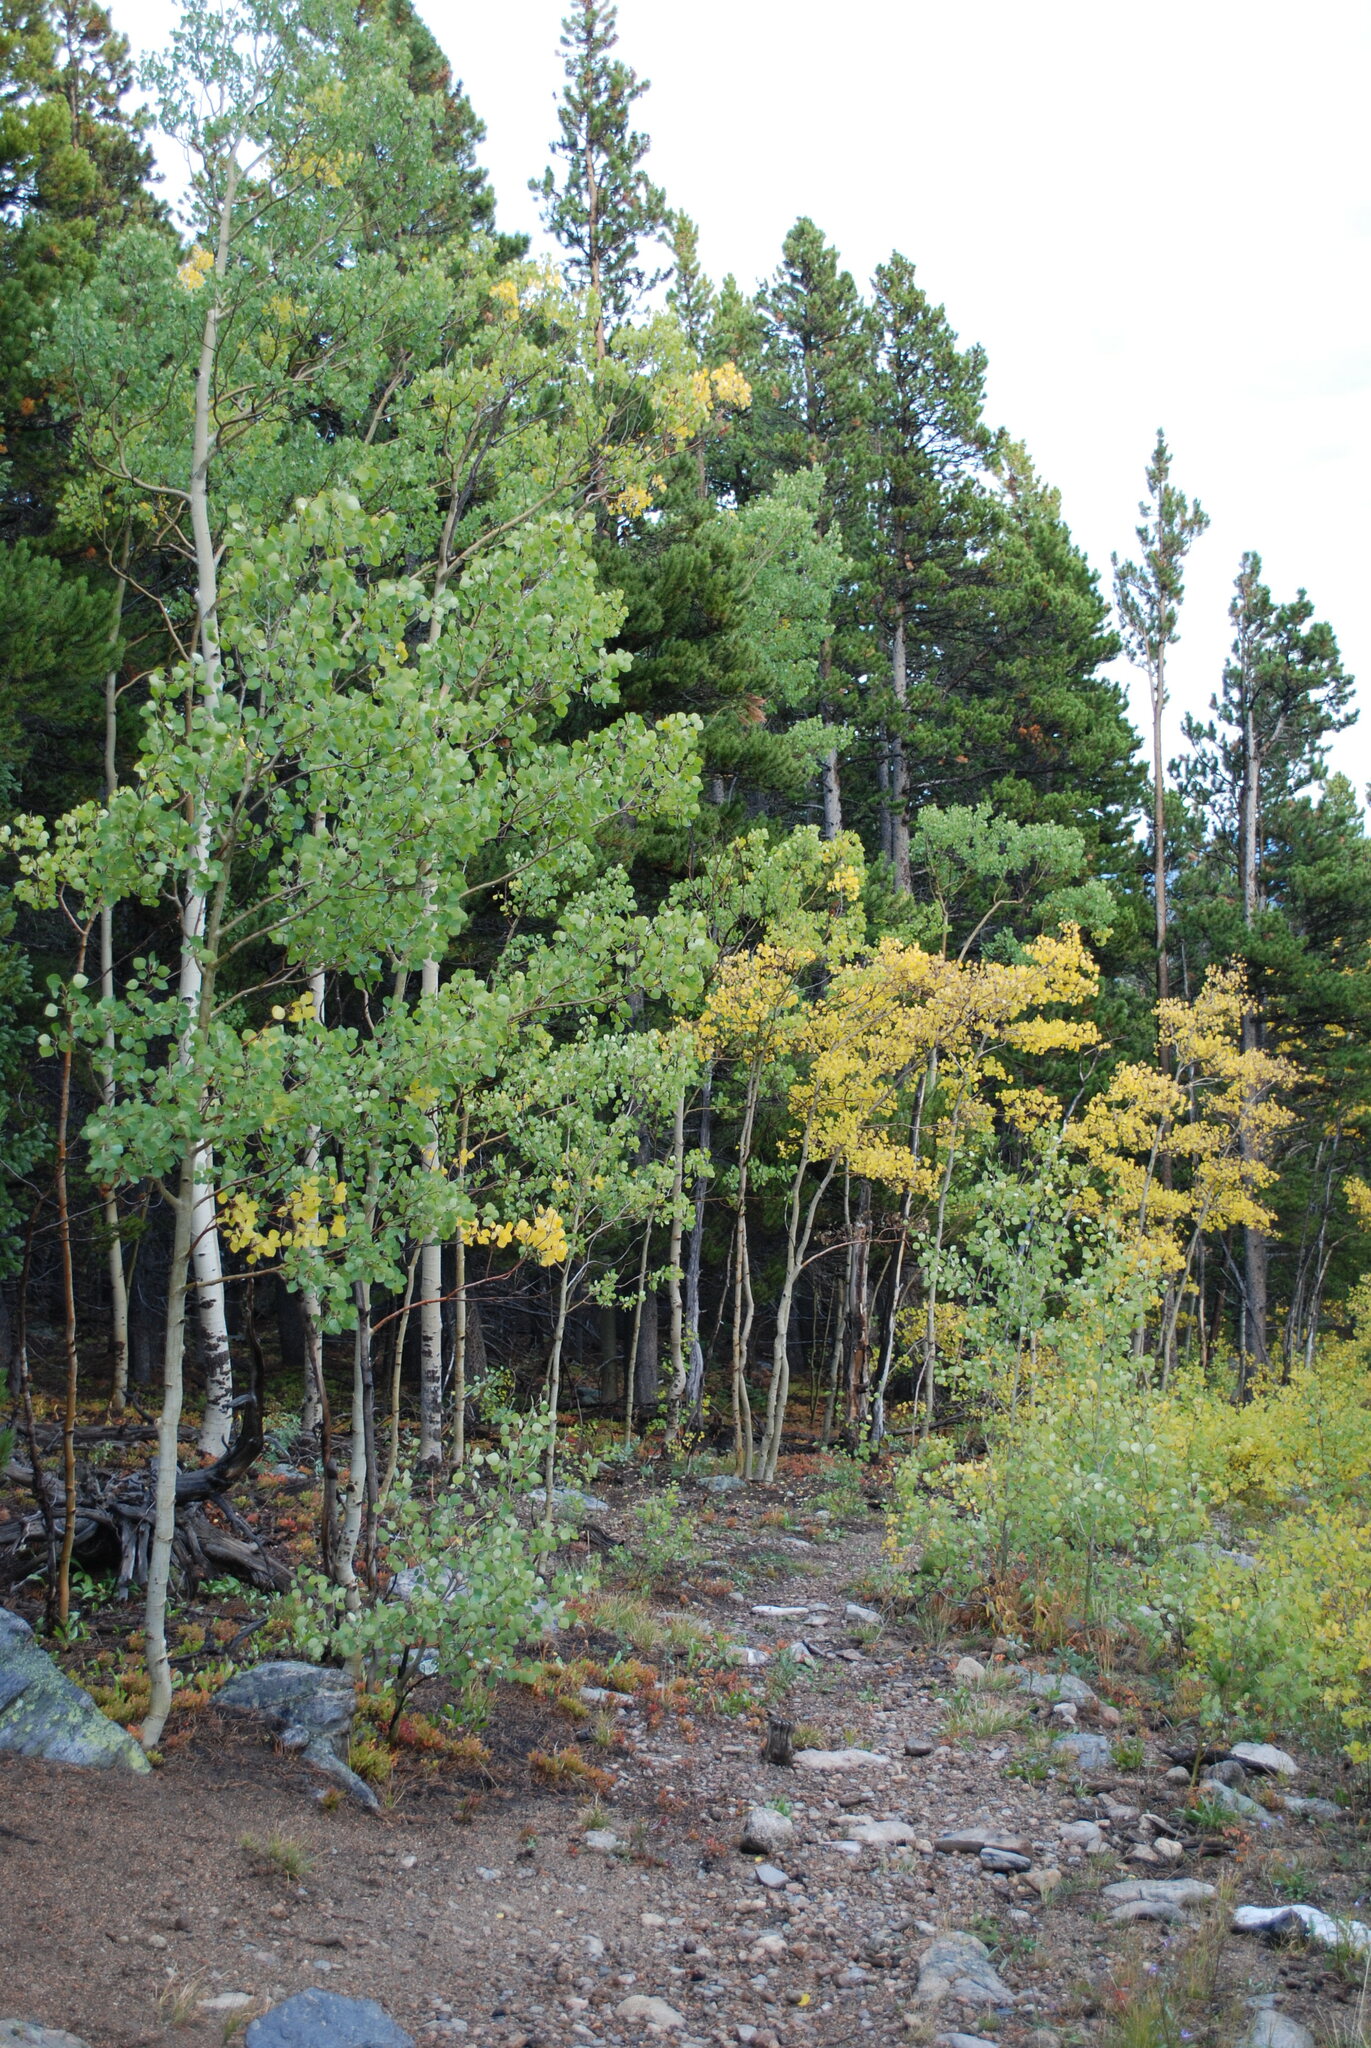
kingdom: Plantae
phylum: Tracheophyta
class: Magnoliopsida
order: Malpighiales
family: Salicaceae
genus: Populus
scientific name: Populus tremuloides
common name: Quaking aspen
